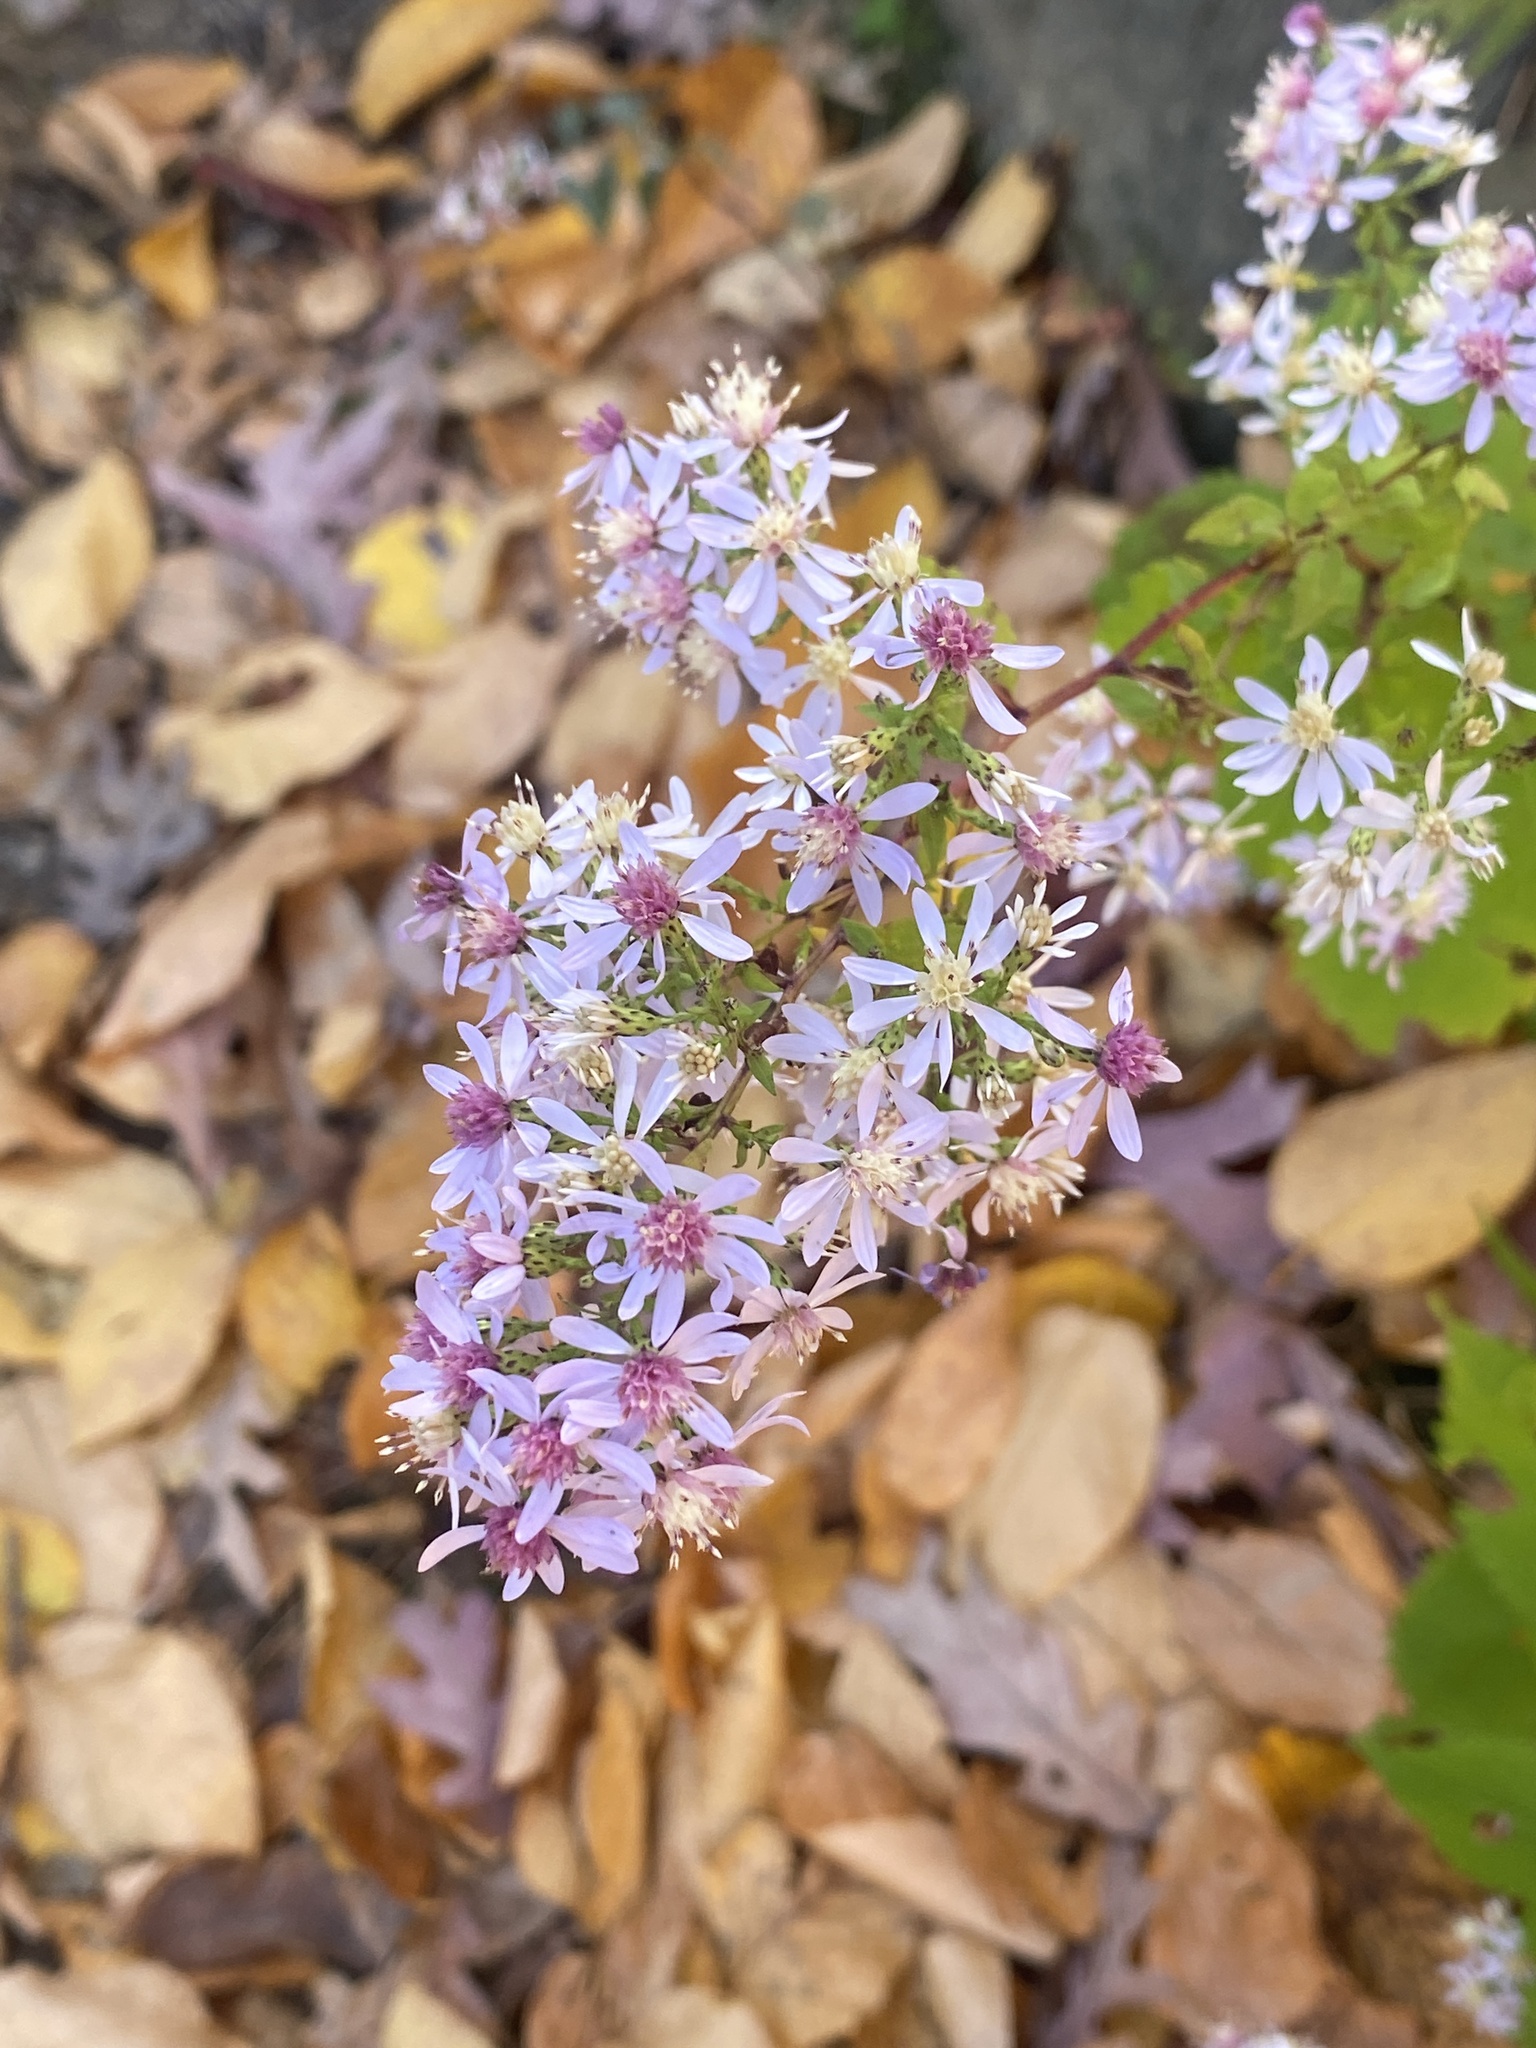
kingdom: Plantae
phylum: Tracheophyta
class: Magnoliopsida
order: Asterales
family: Asteraceae
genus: Symphyotrichum
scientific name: Symphyotrichum cordifolium
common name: Beeweed
